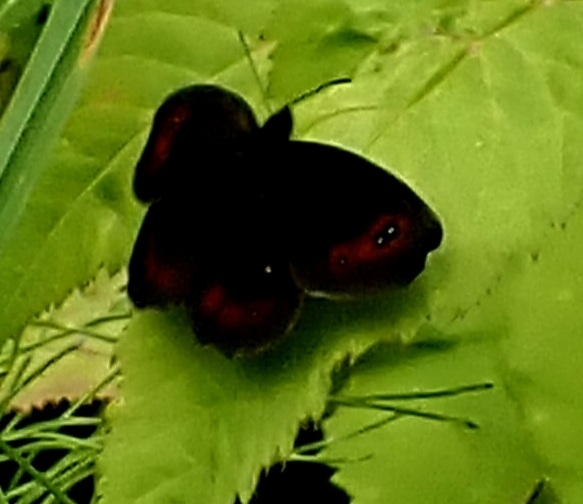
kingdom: Animalia
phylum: Arthropoda
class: Insecta
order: Lepidoptera
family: Nymphalidae
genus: Erebia
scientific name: Erebia aethiops
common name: Scotch argus
